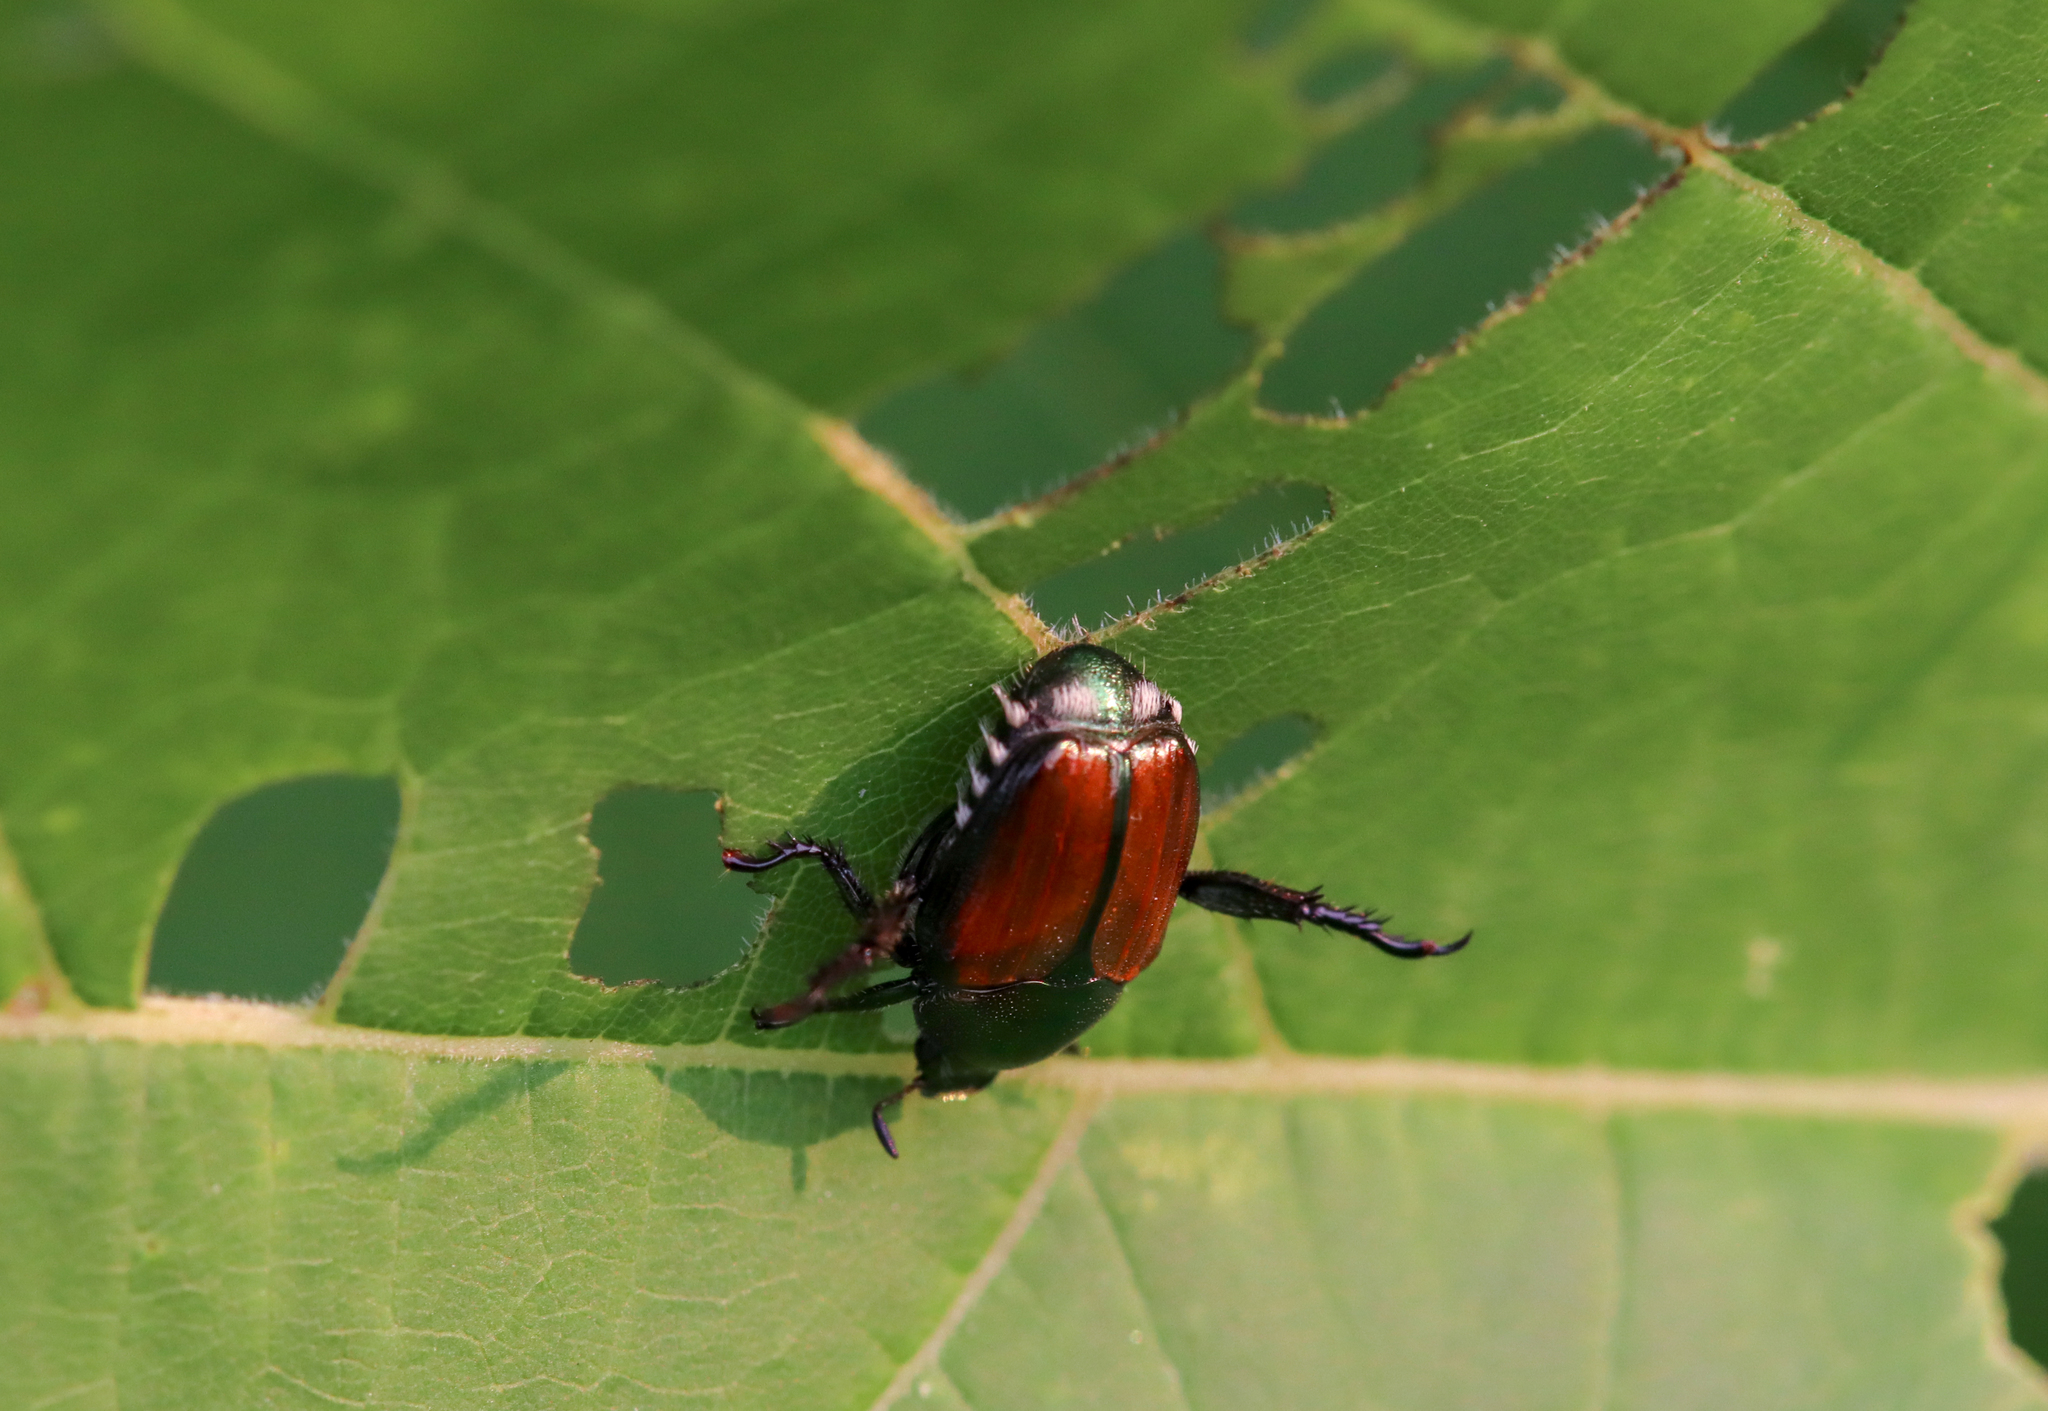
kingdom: Animalia
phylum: Arthropoda
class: Insecta
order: Coleoptera
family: Scarabaeidae
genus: Popillia
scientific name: Popillia japonica
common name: Japanese beetle
